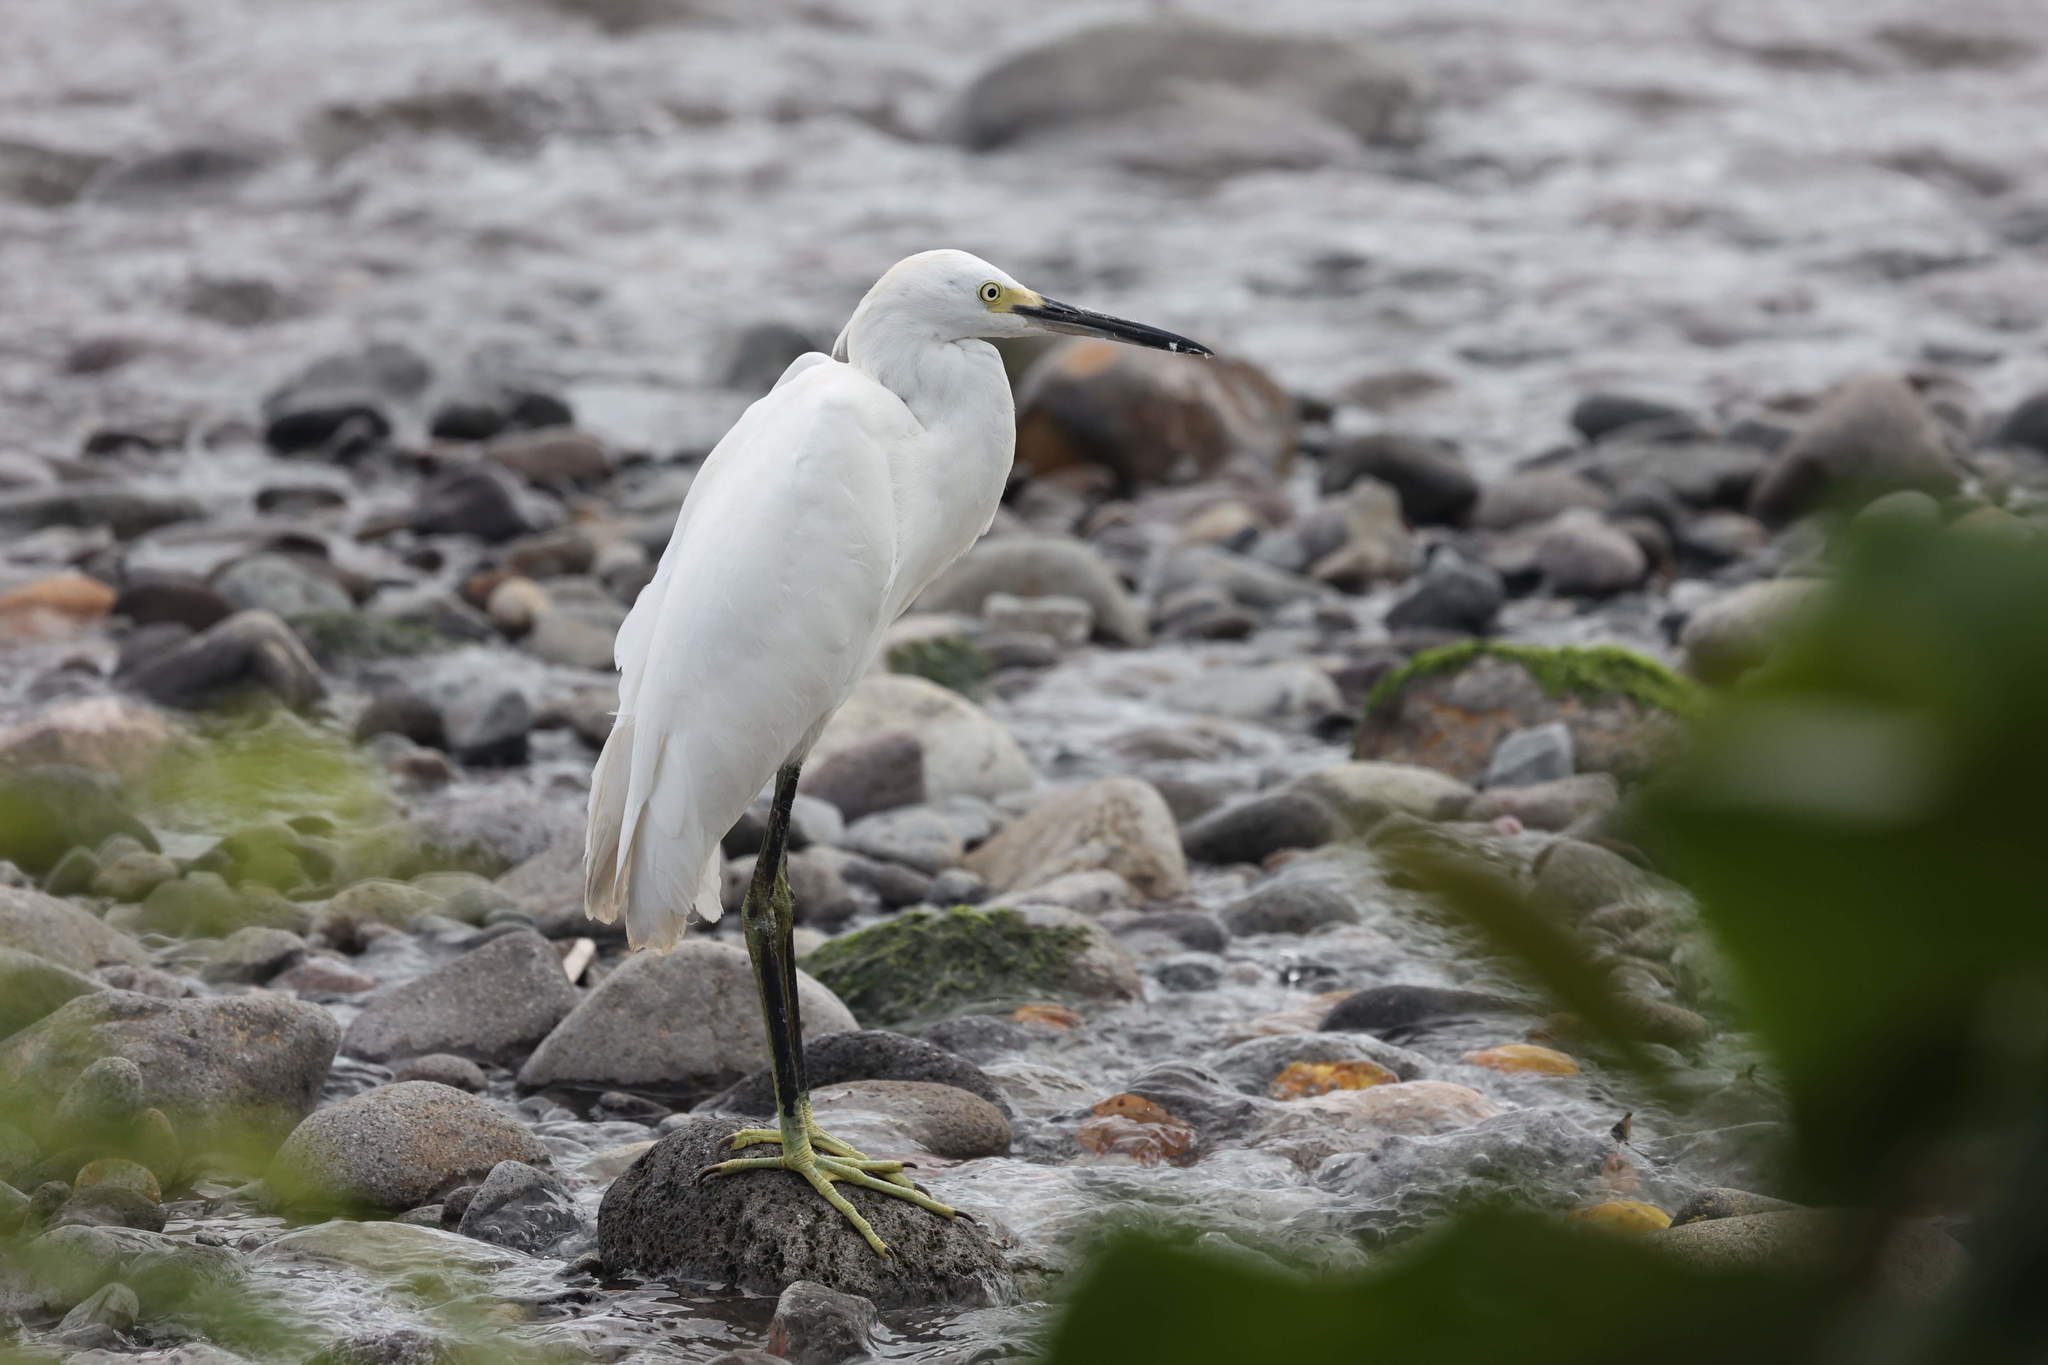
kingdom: Animalia
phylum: Chordata
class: Aves
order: Pelecaniformes
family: Ardeidae
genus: Egretta
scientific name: Egretta thula
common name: Snowy egret
